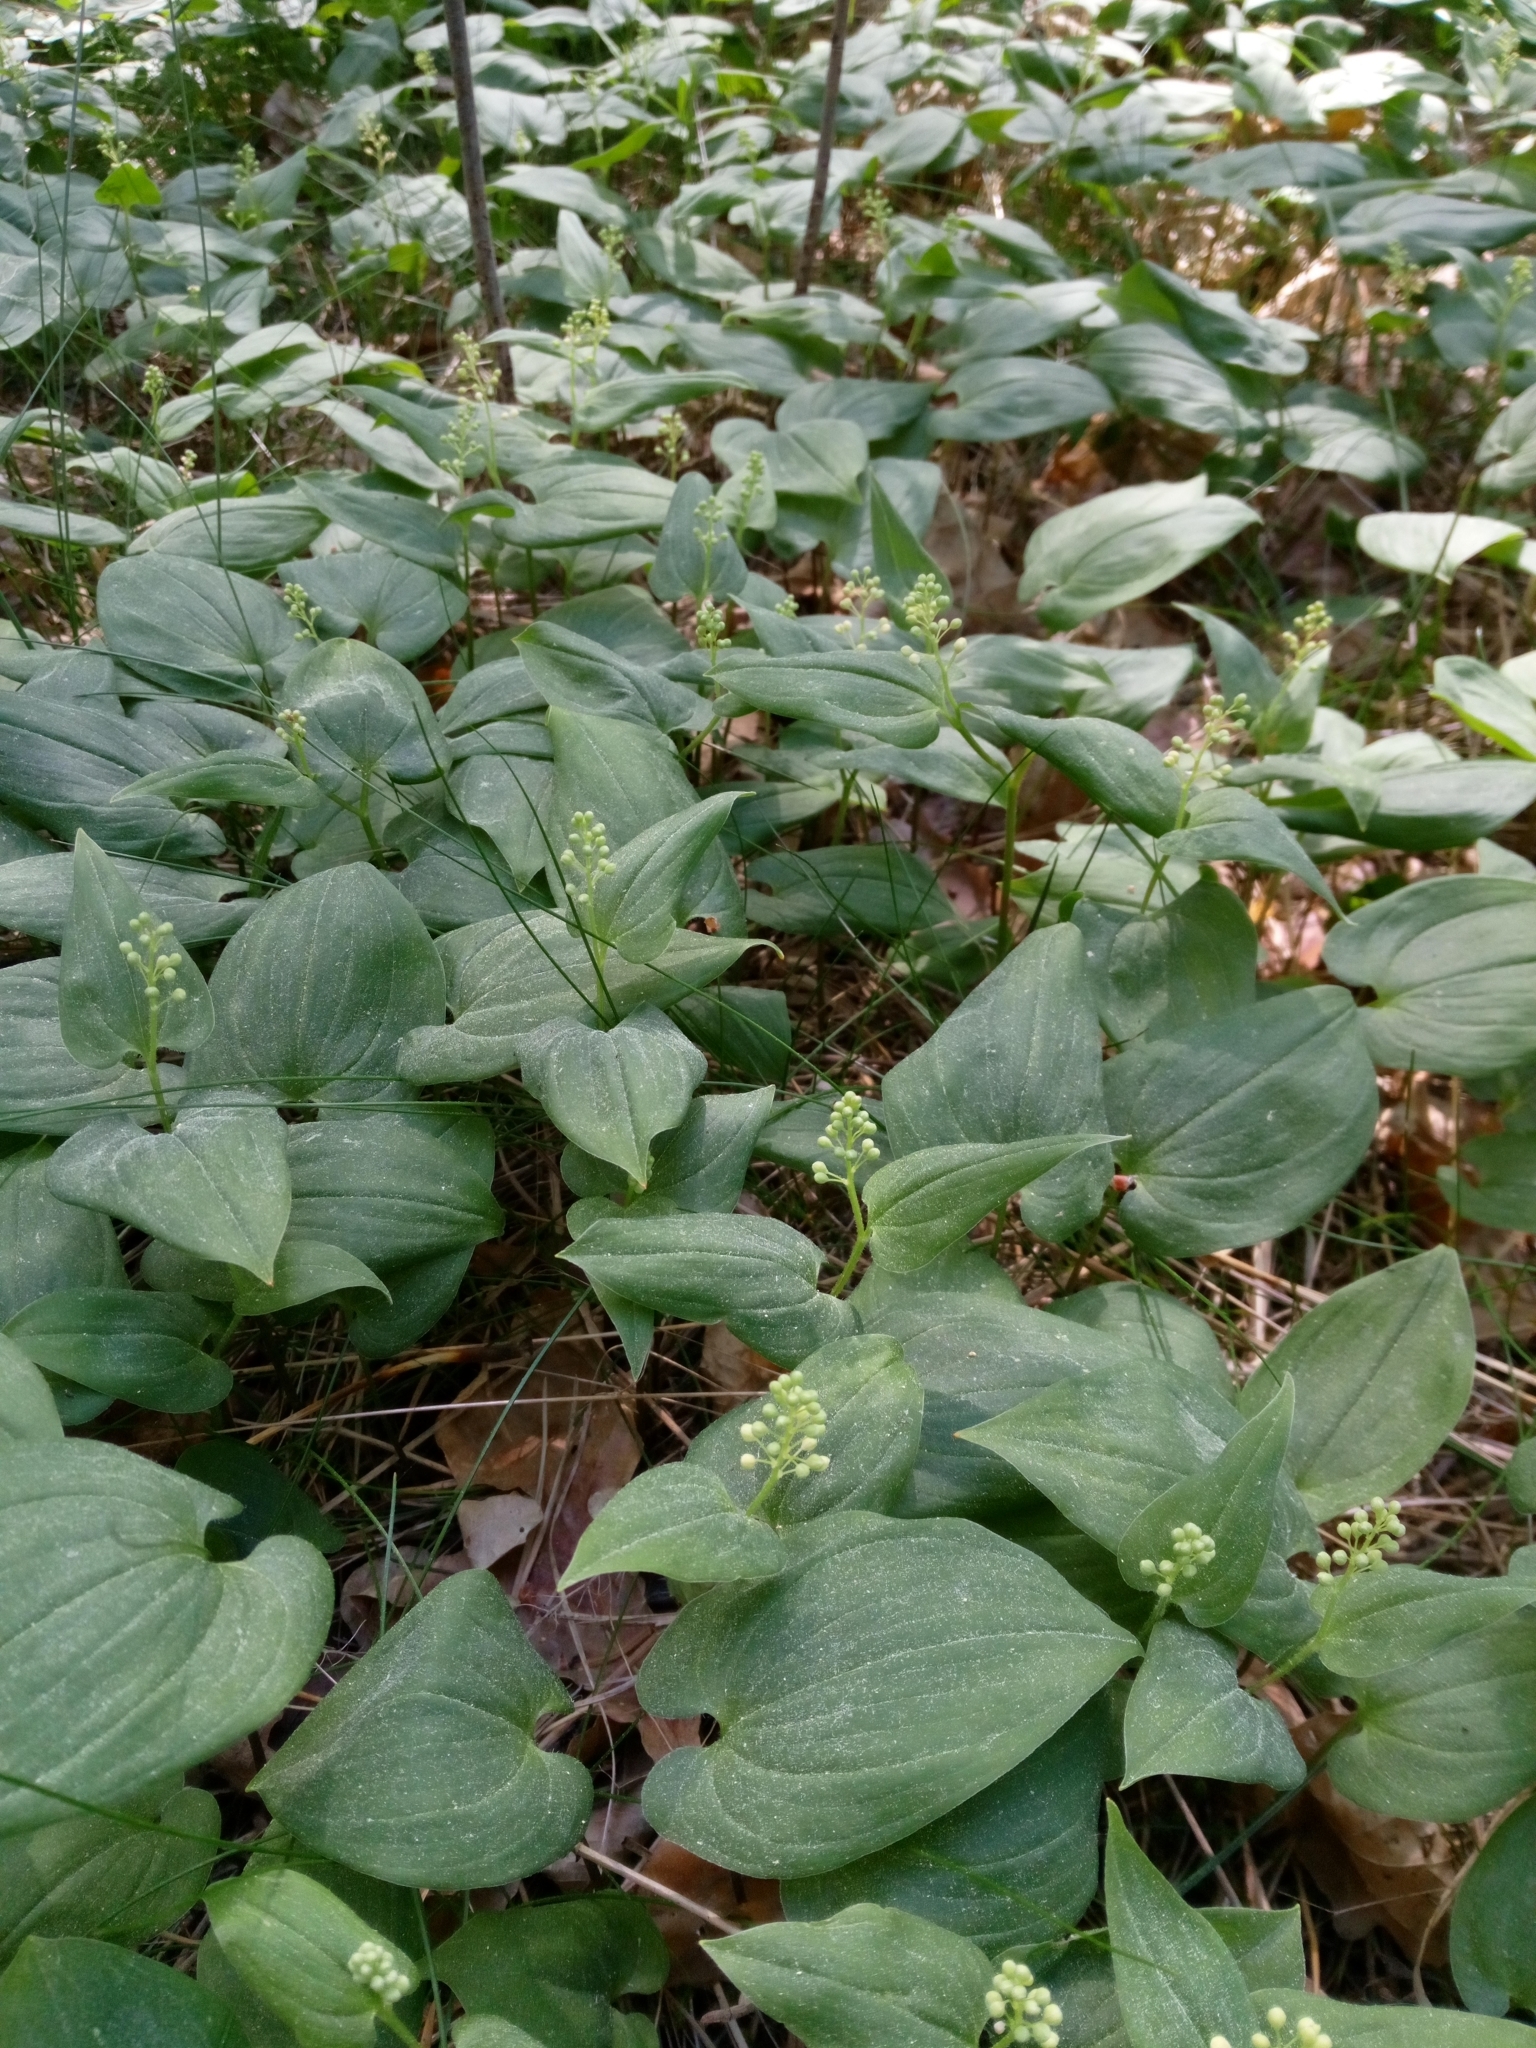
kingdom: Plantae
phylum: Tracheophyta
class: Liliopsida
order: Asparagales
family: Asparagaceae
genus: Maianthemum
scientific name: Maianthemum bifolium
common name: May lily
